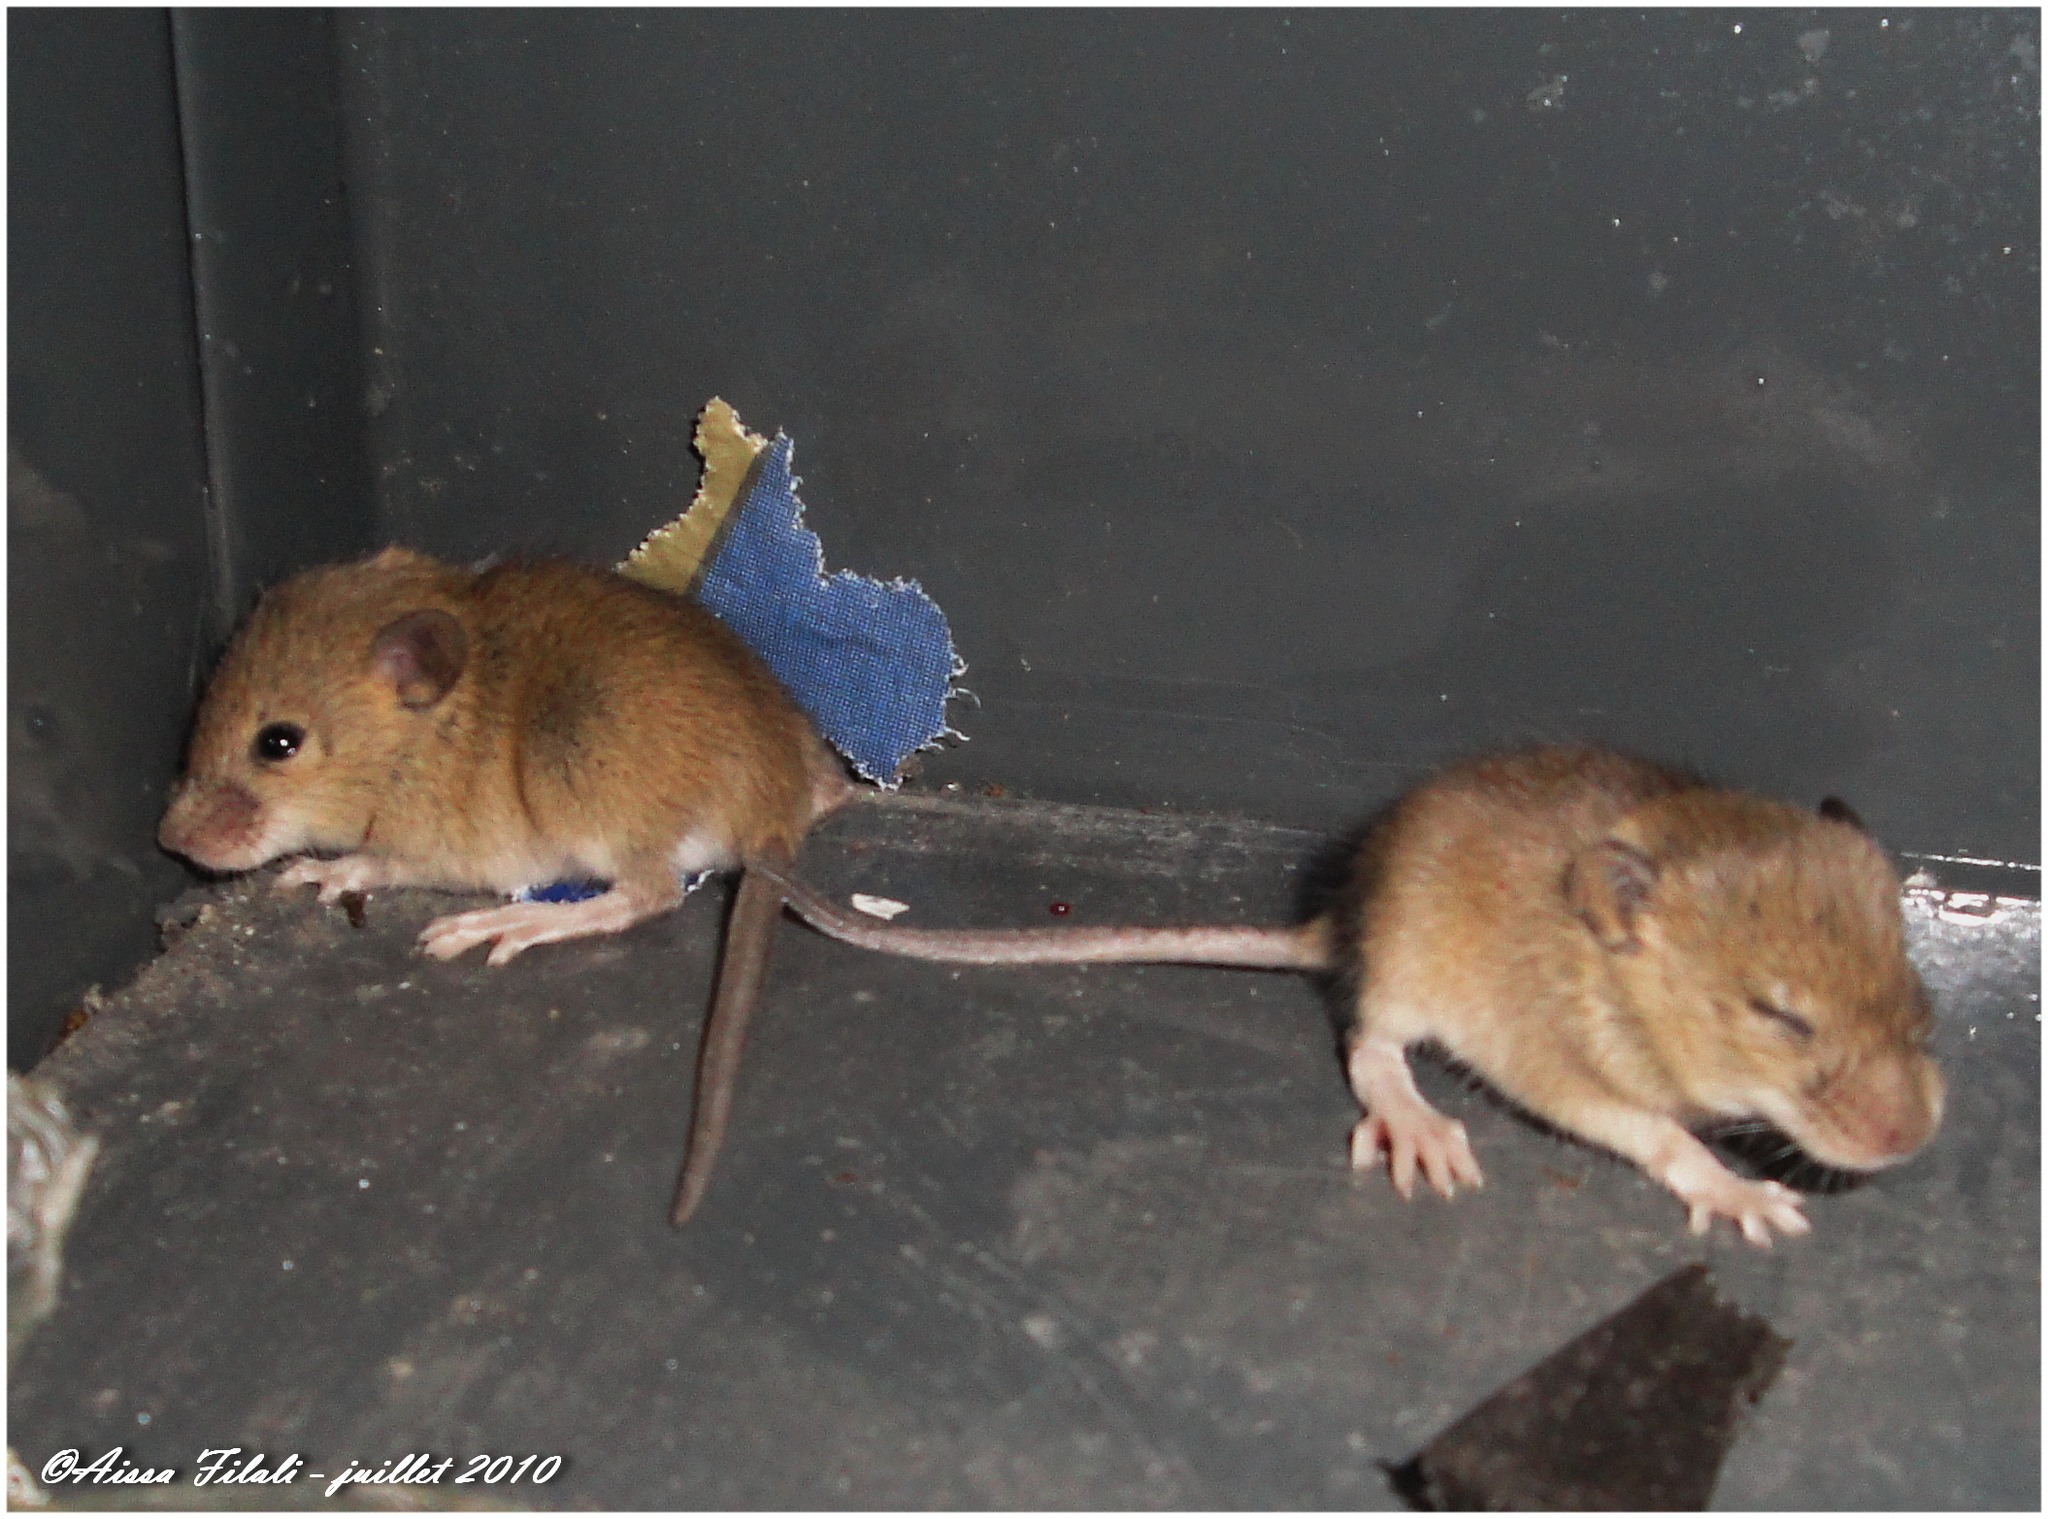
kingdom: Animalia
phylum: Chordata
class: Mammalia
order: Rodentia
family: Muridae
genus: Mus
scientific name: Mus musculus
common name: House mouse
